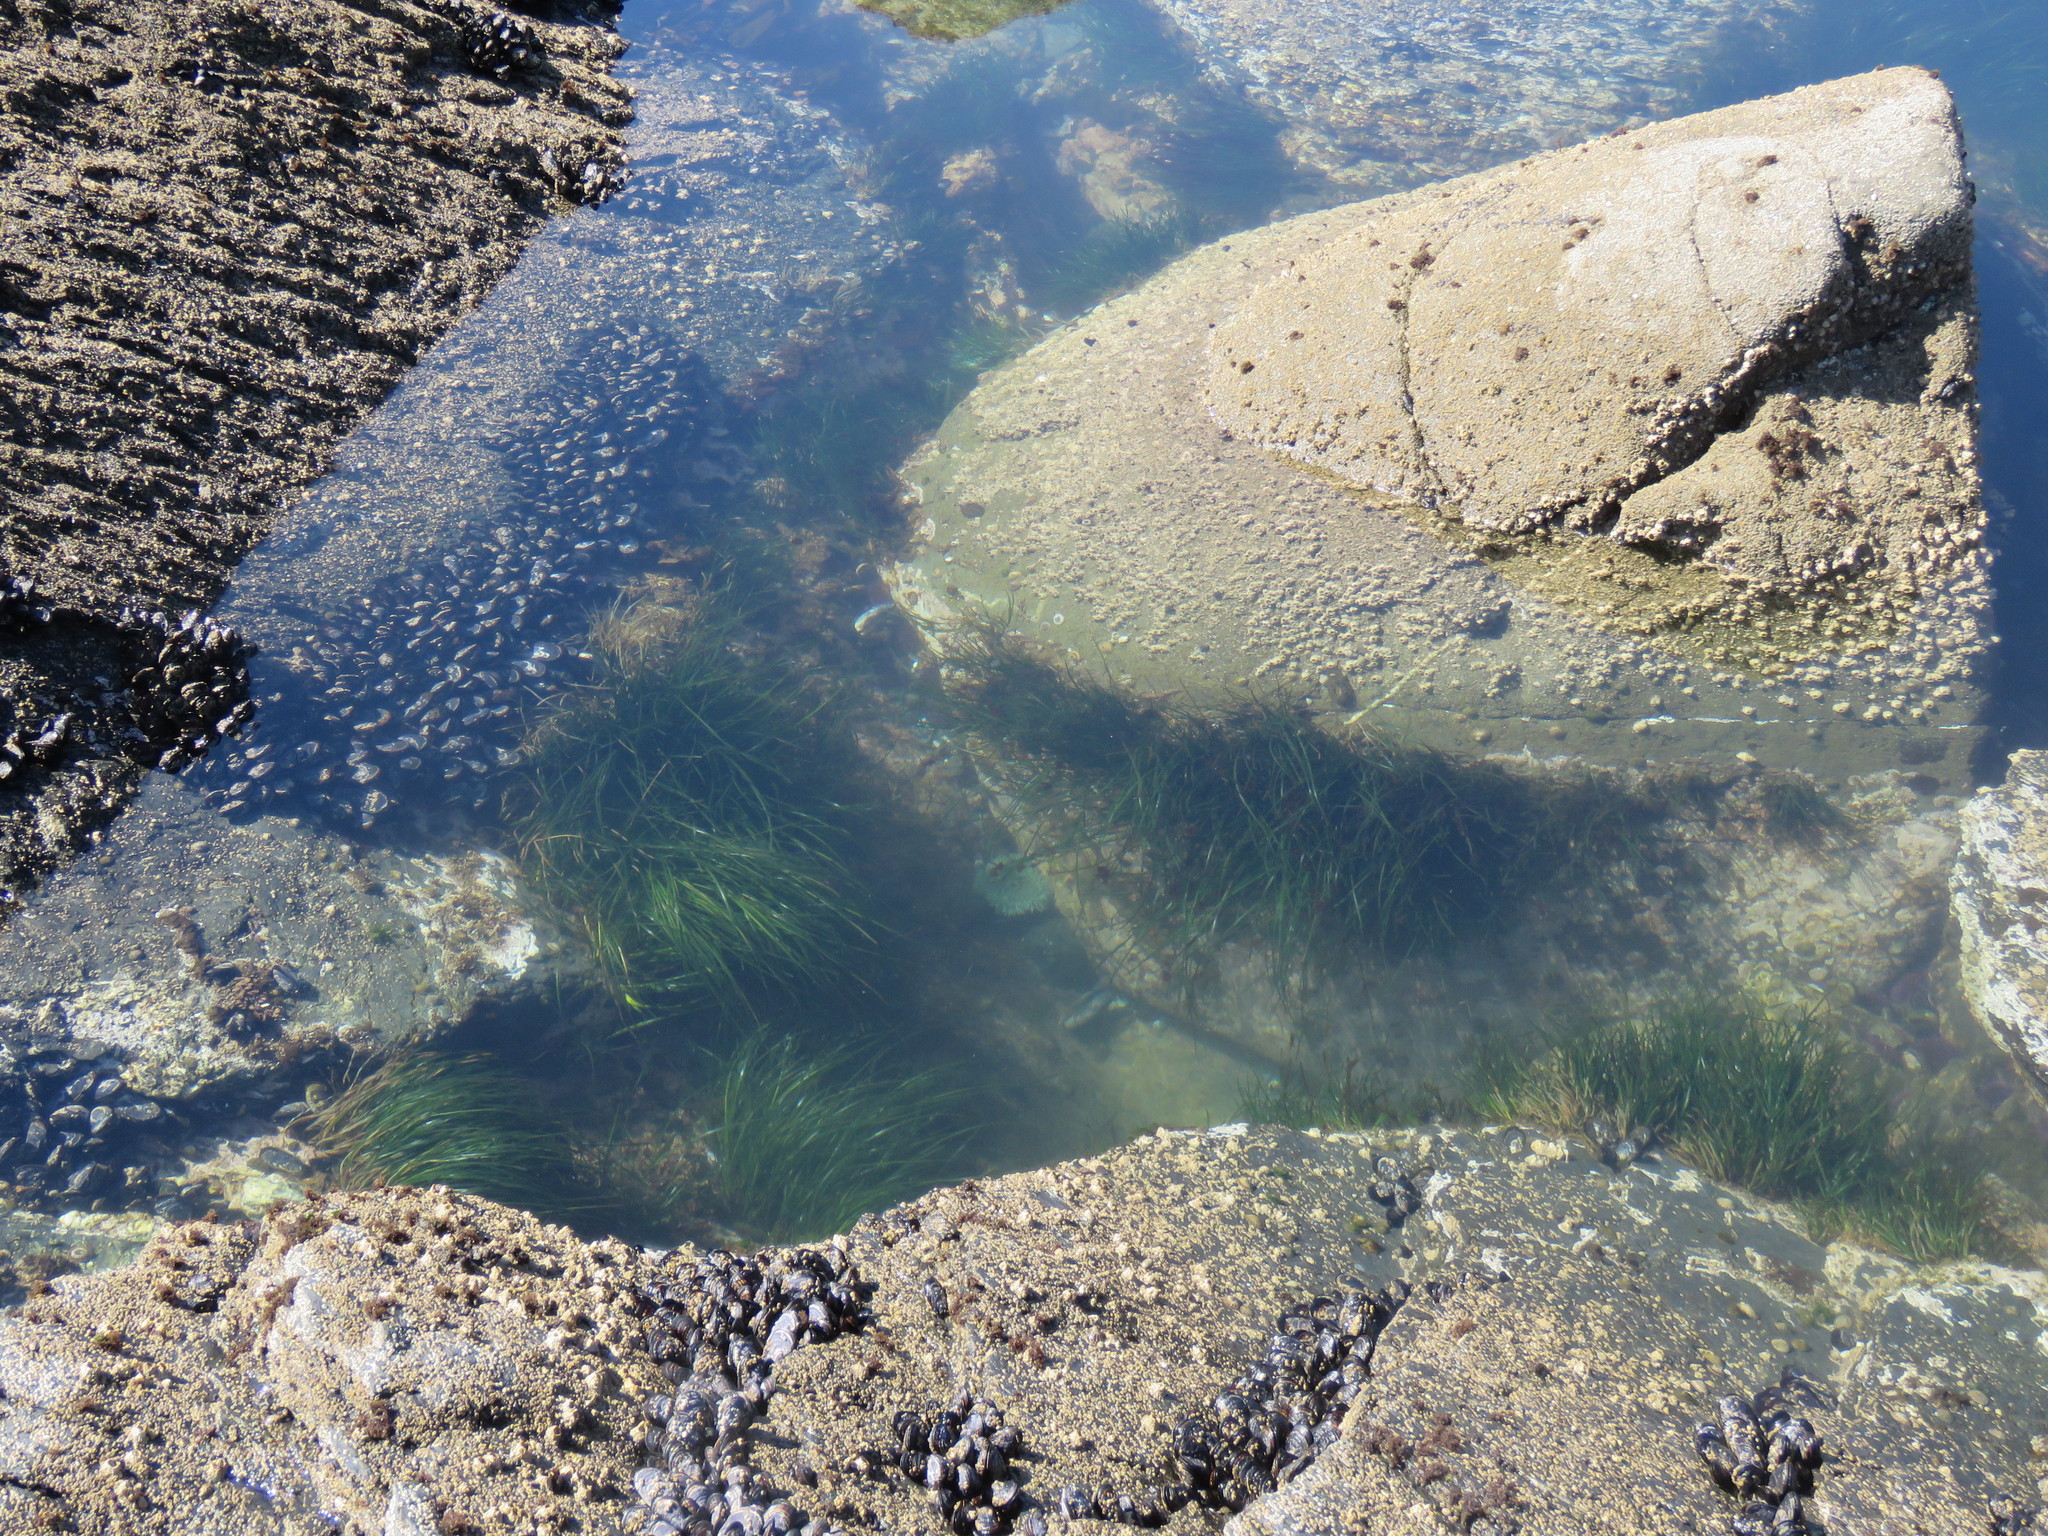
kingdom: Animalia
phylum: Cnidaria
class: Anthozoa
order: Actiniaria
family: Actiniidae
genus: Anthopleura
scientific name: Anthopleura xanthogrammica
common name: Giant green anemone
